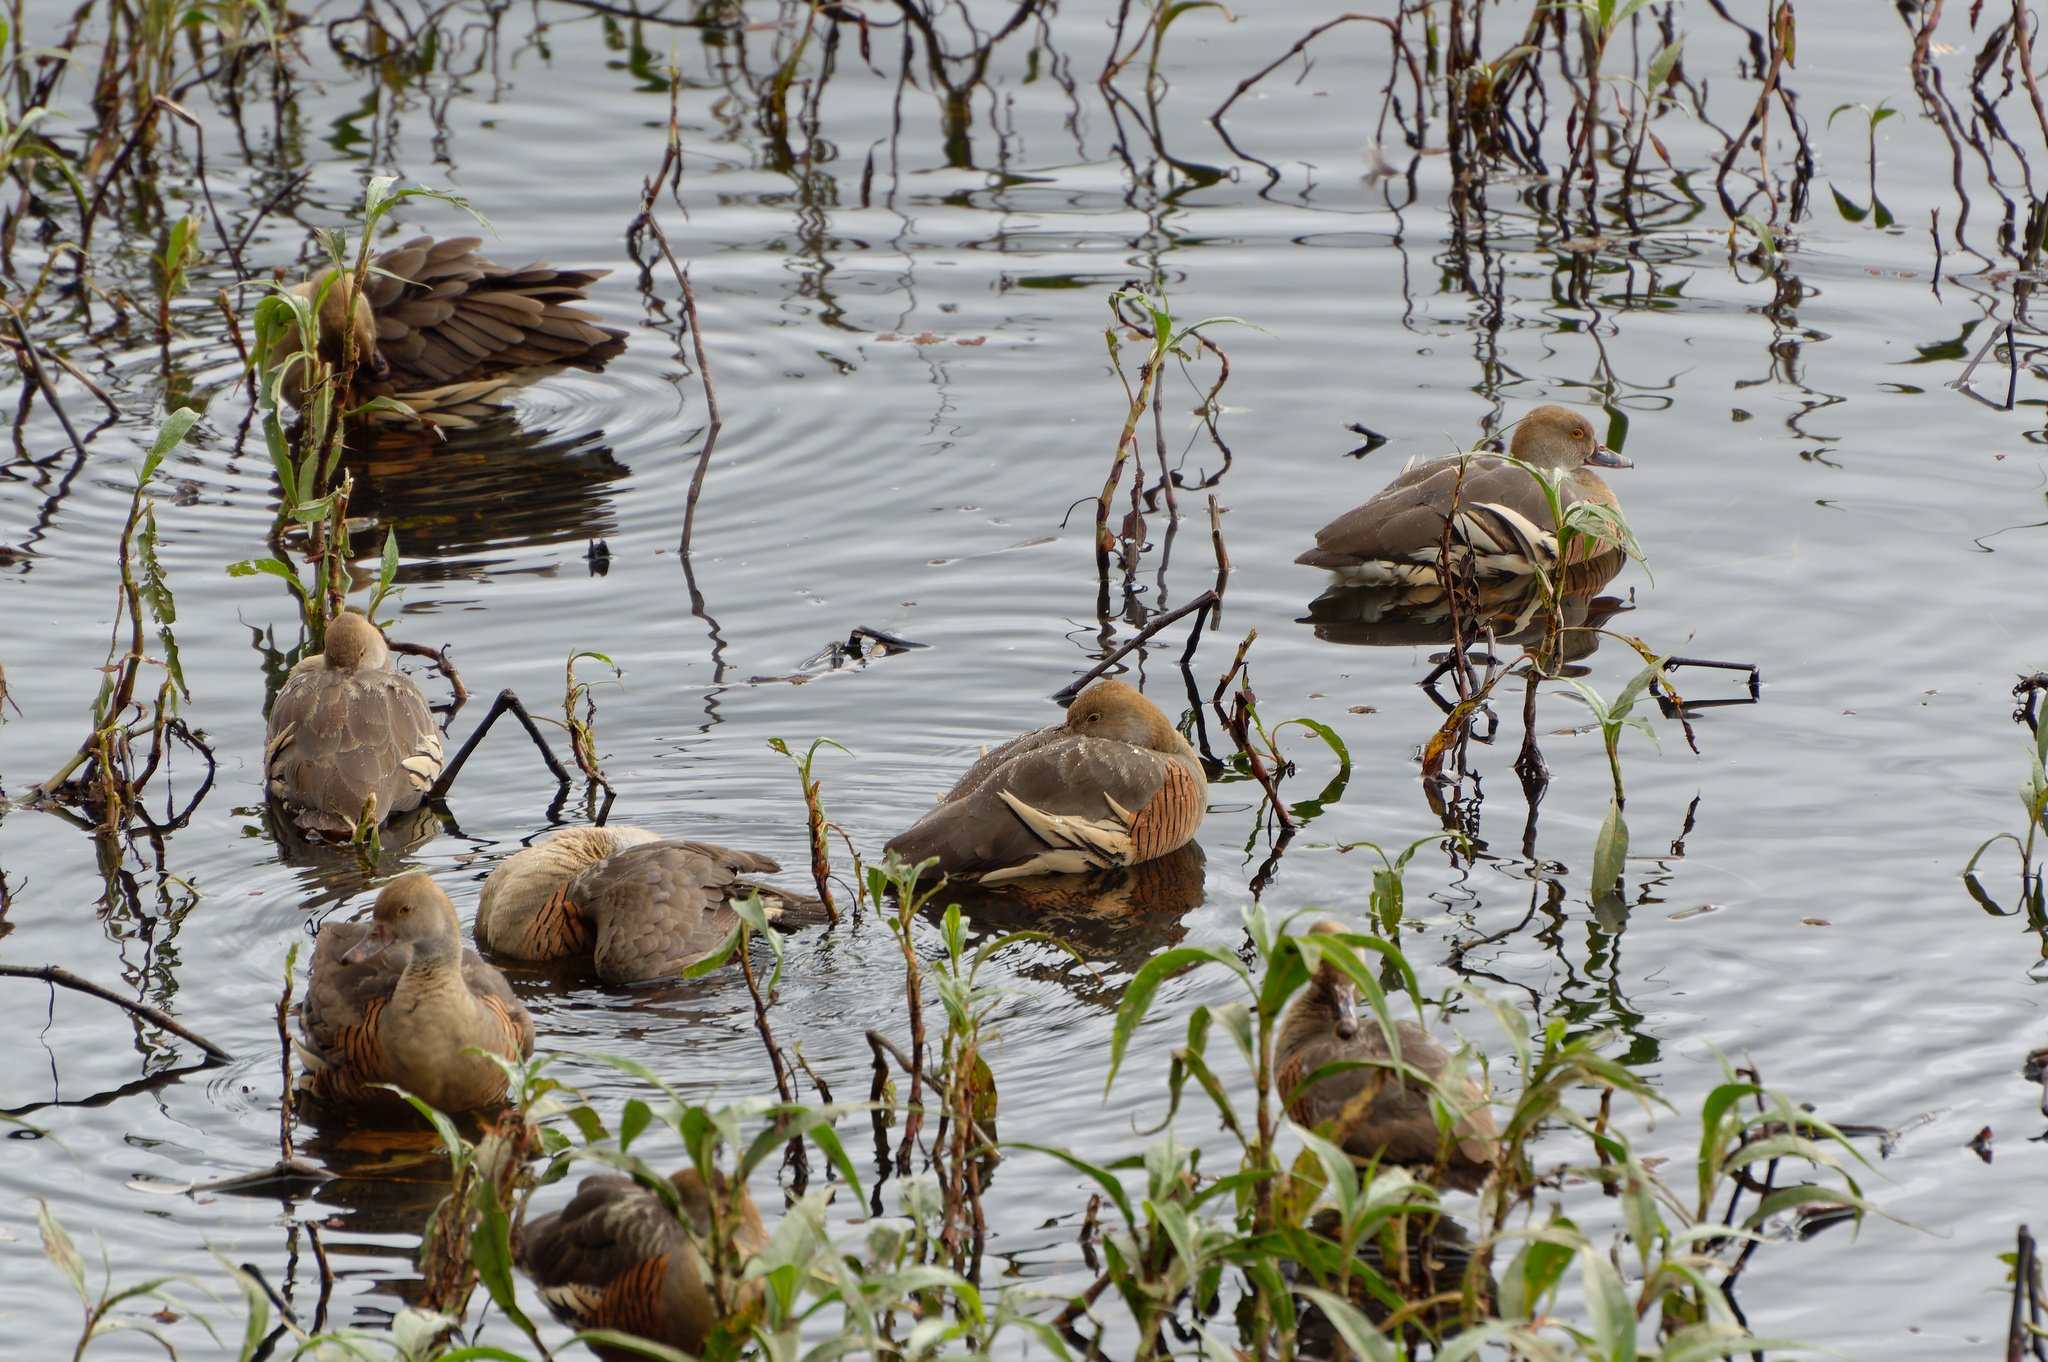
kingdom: Animalia
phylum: Chordata
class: Aves
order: Anseriformes
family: Anatidae
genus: Dendrocygna
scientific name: Dendrocygna eytoni
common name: Plumed whistling-duck
